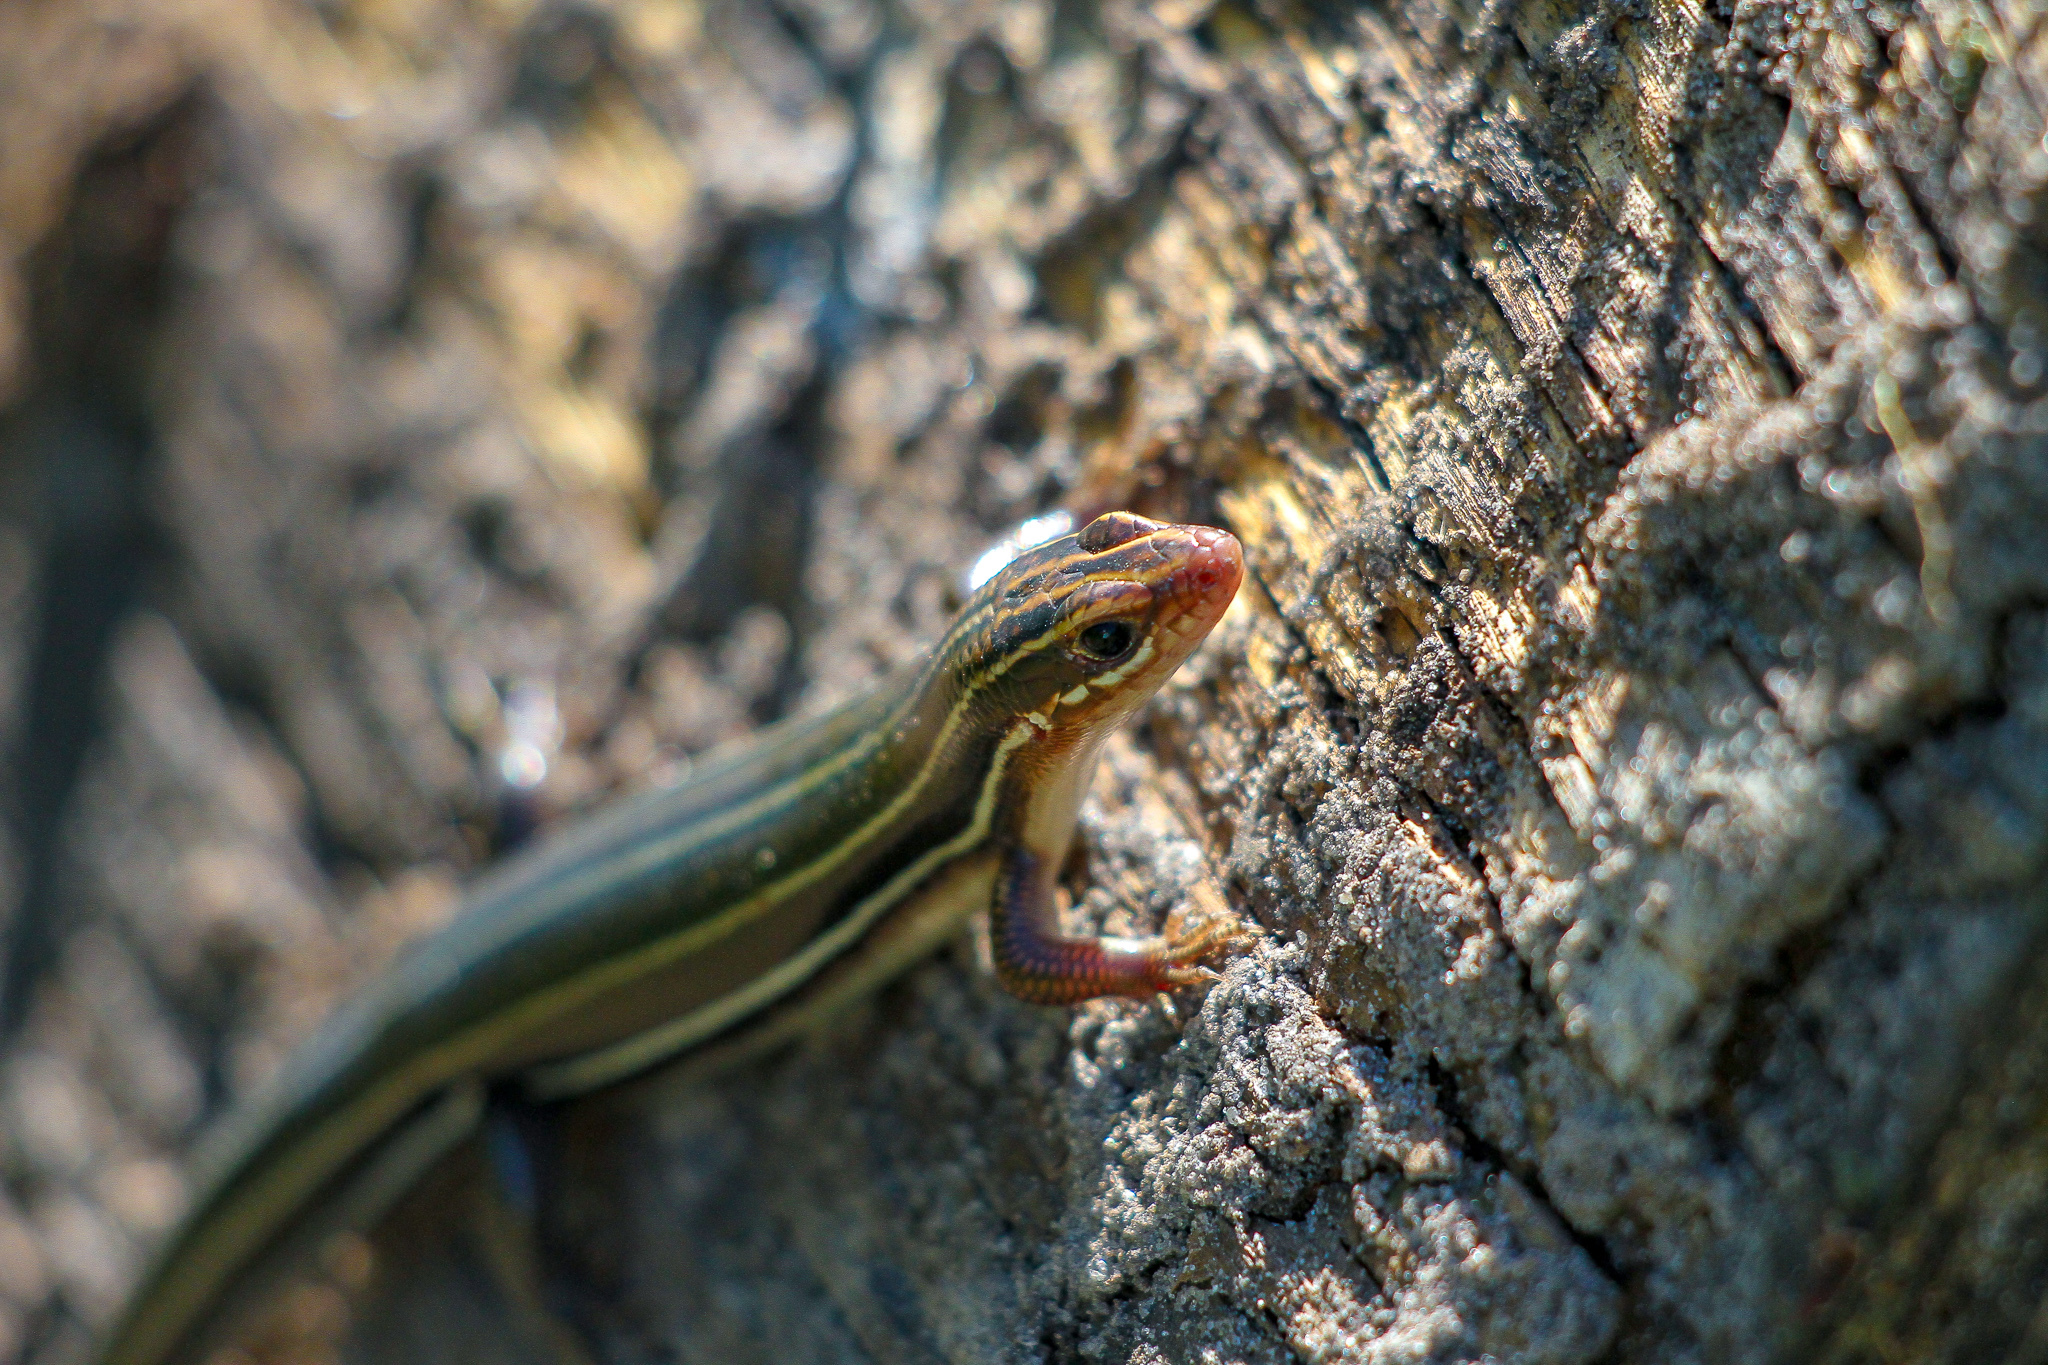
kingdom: Animalia
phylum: Chordata
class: Squamata
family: Scincidae
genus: Plestiodon
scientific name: Plestiodon inexpectatus
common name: Southeastern five-lined skink
